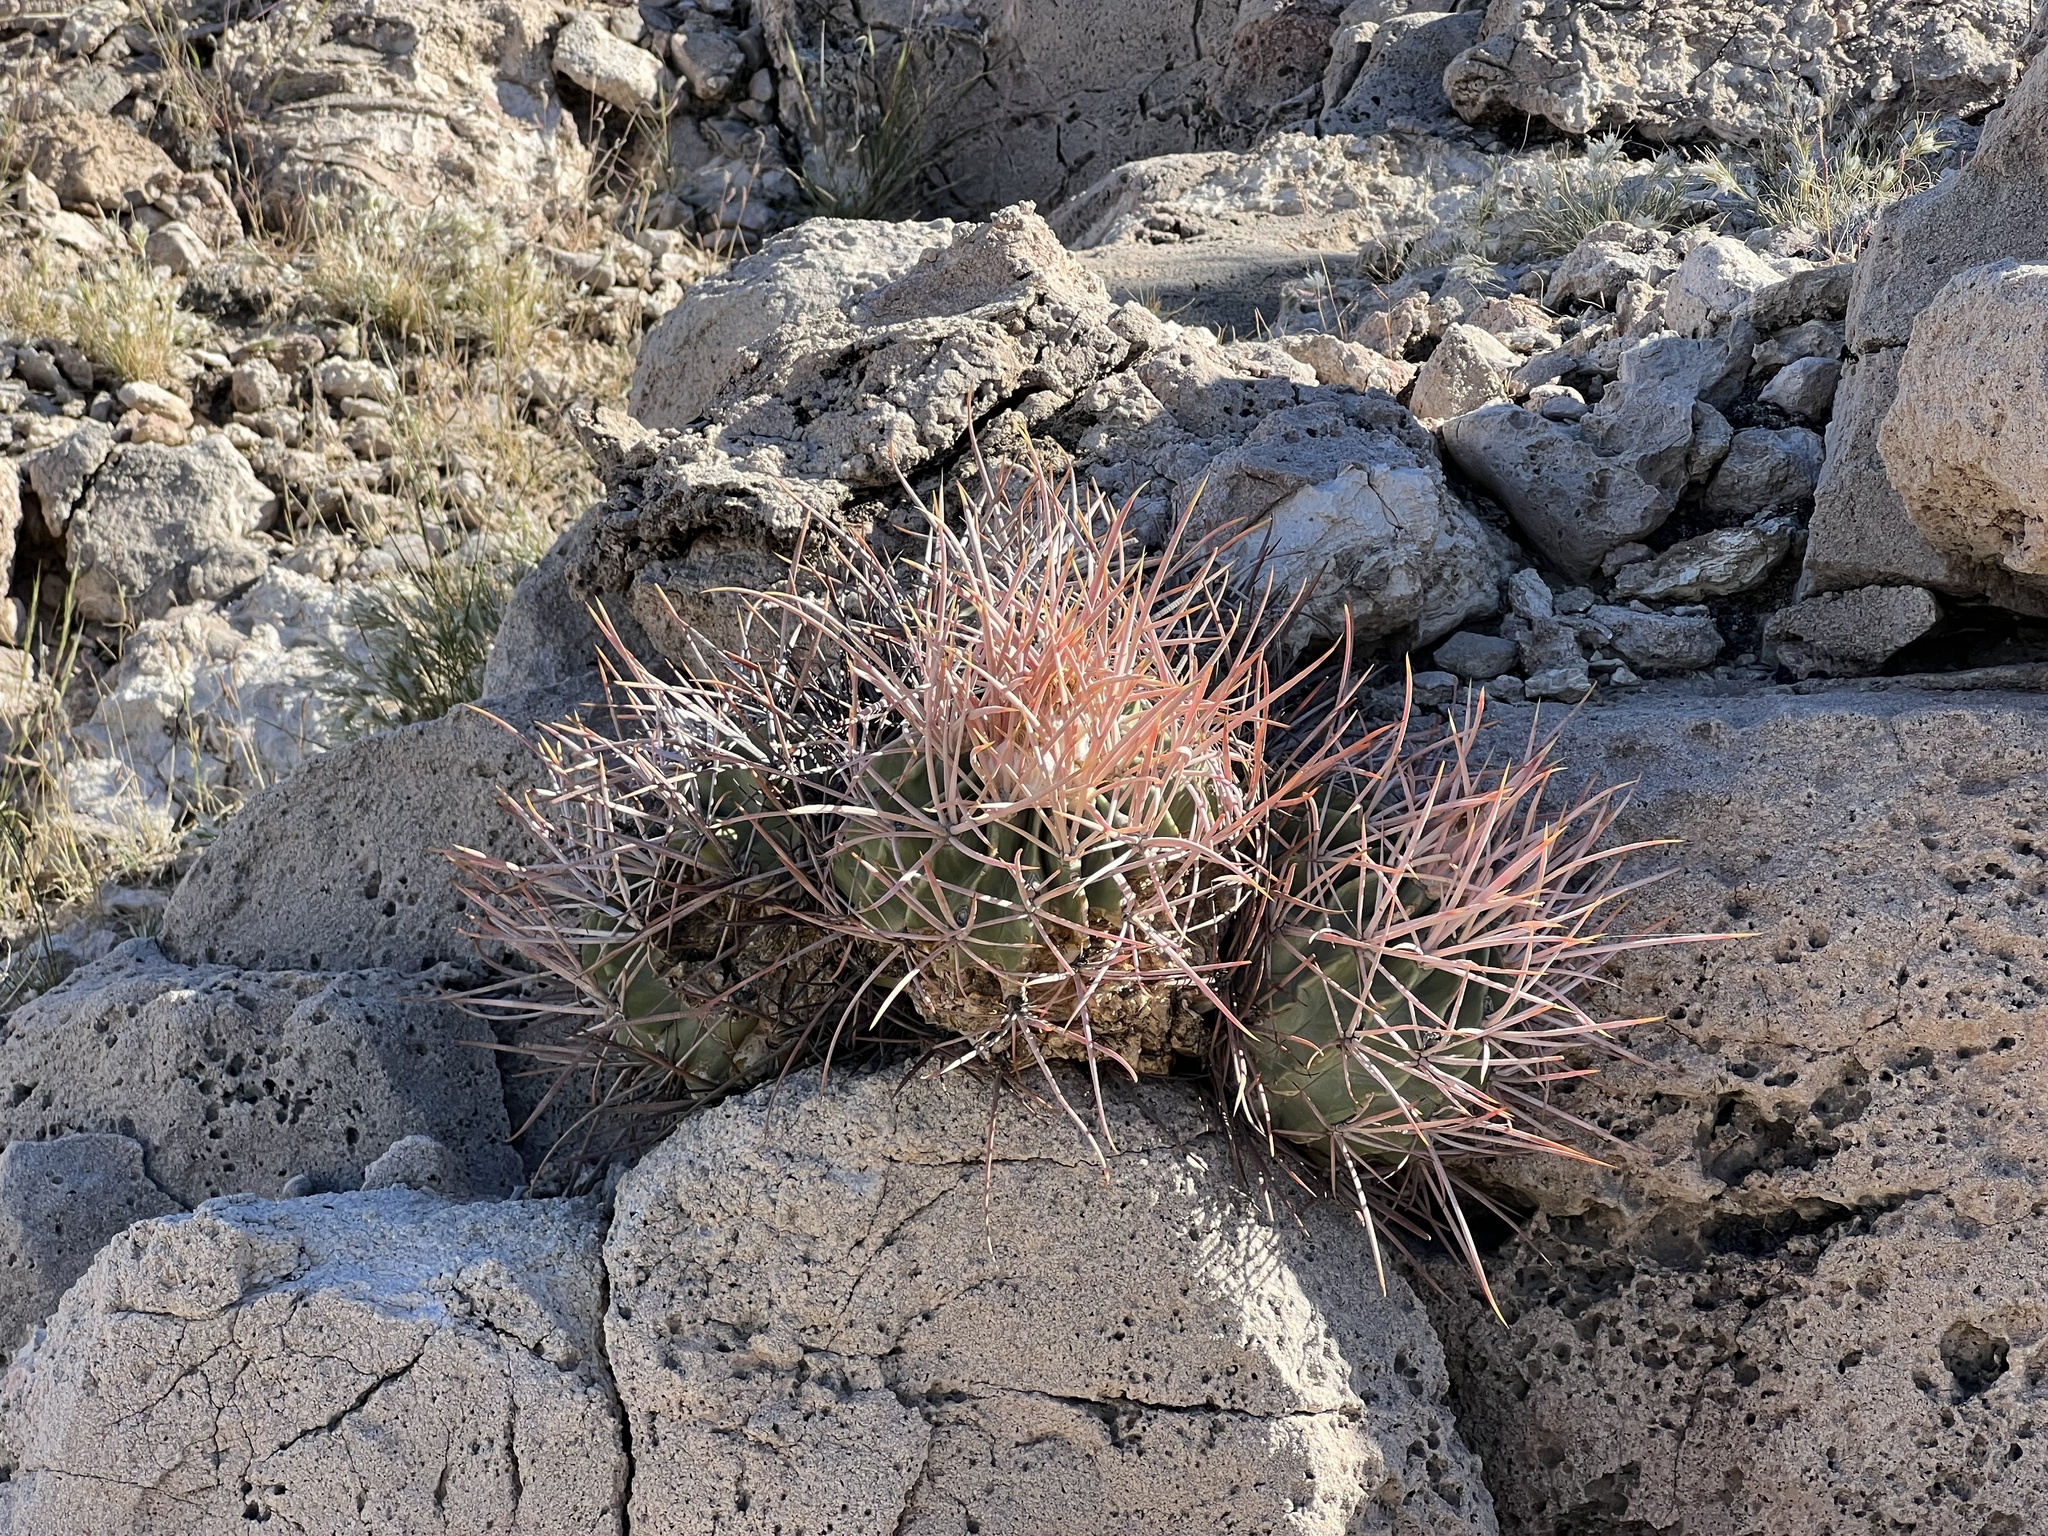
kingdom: Plantae
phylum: Tracheophyta
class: Magnoliopsida
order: Caryophyllales
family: Cactaceae
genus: Echinocactus
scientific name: Echinocactus polycephalus
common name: Cottontop cactus
